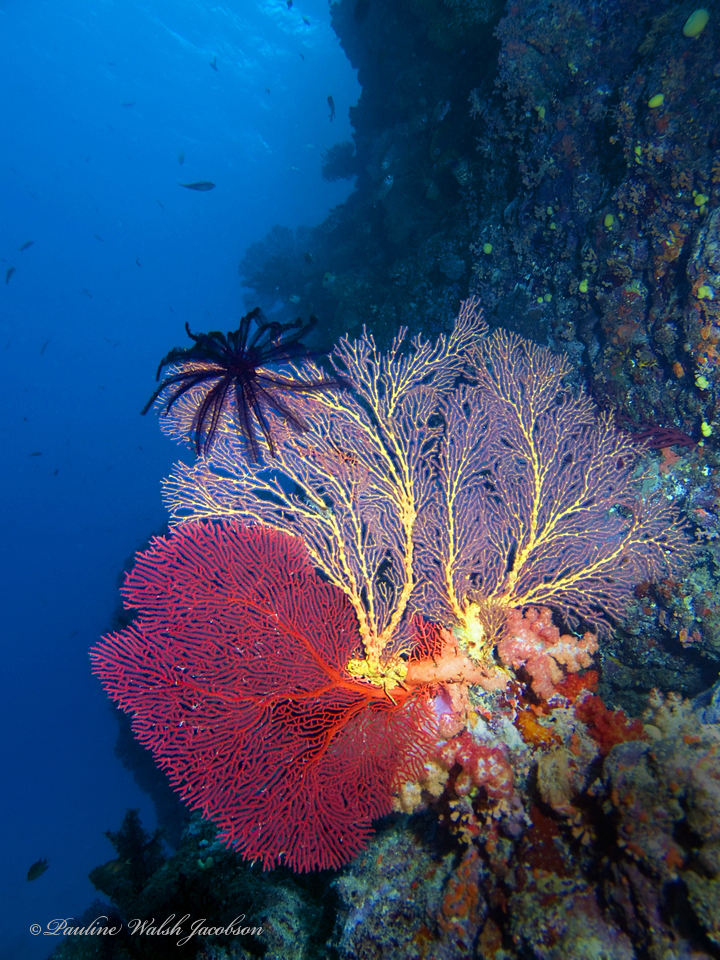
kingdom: Animalia
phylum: Cnidaria
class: Anthozoa
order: Malacalcyonacea
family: Subergorgiidae
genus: Annella
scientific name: Annella mollis
